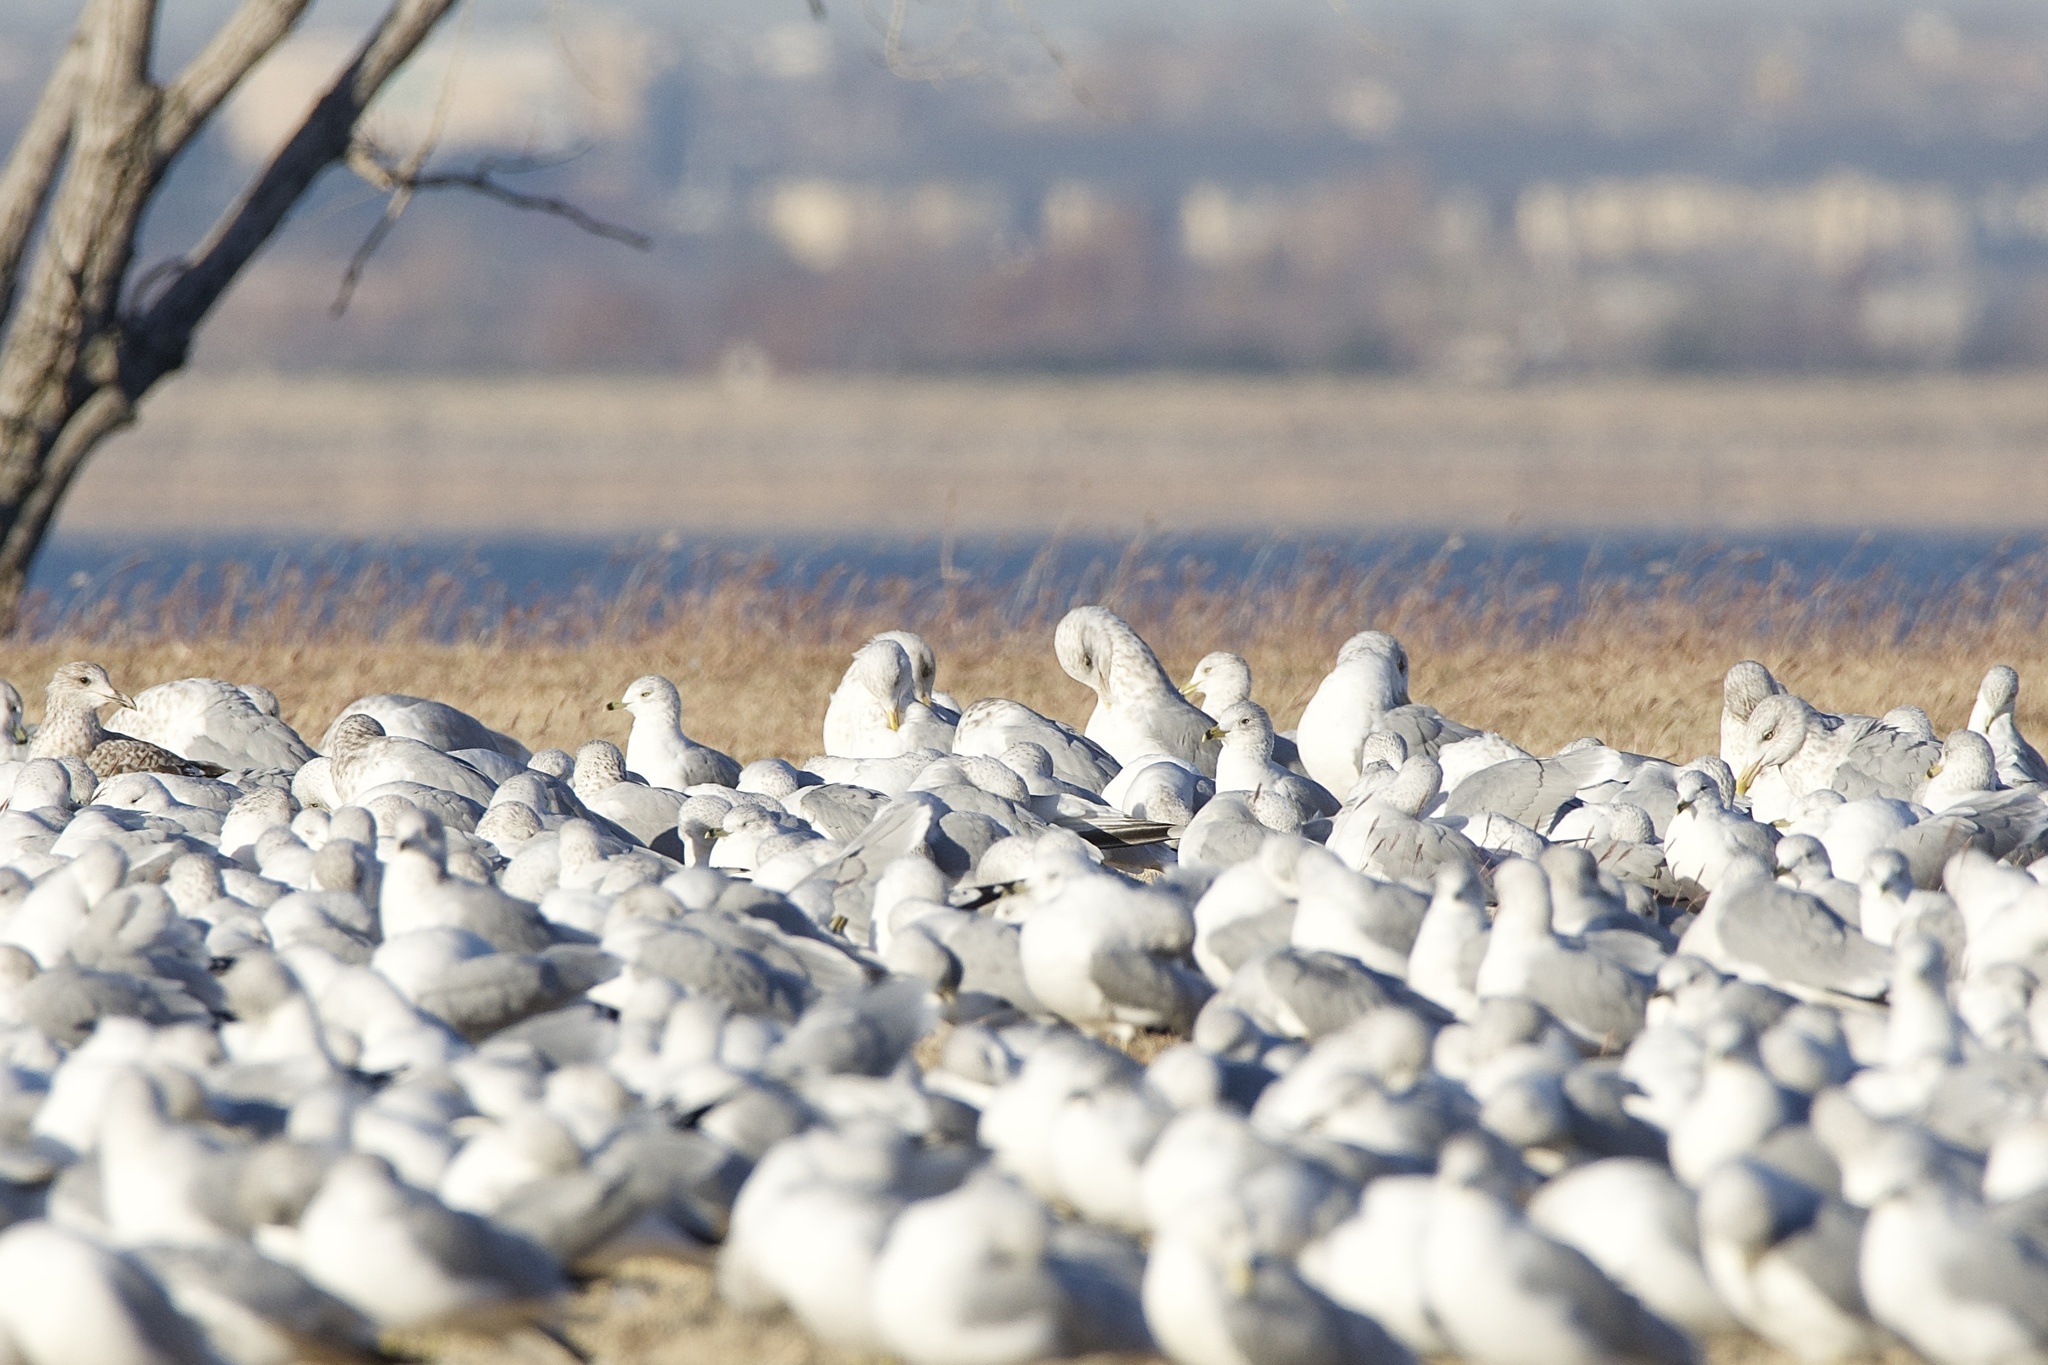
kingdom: Animalia
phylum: Chordata
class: Aves
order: Charadriiformes
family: Laridae
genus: Larus
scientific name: Larus argentatus
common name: Herring gull
